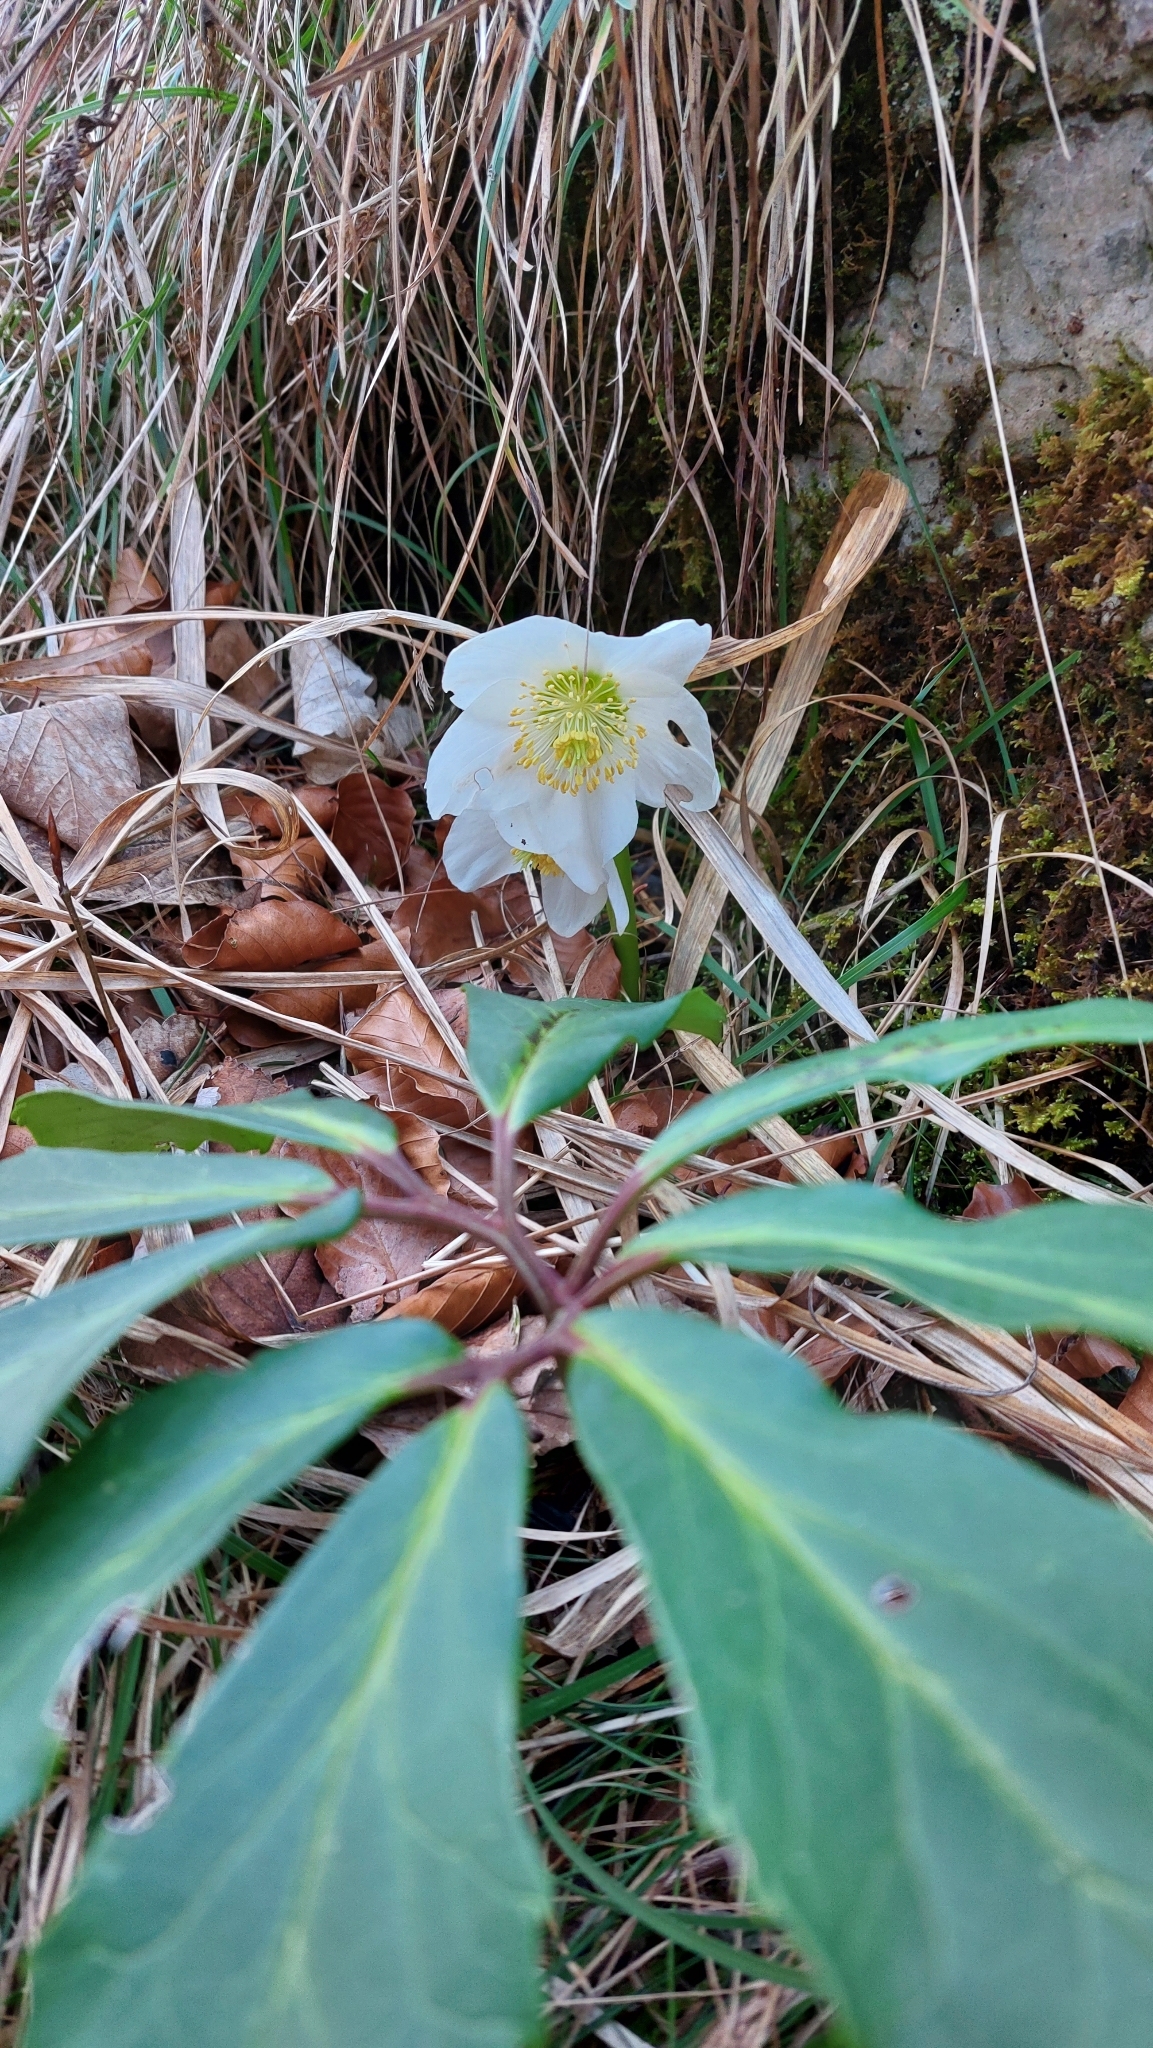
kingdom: Plantae
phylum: Tracheophyta
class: Magnoliopsida
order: Ranunculales
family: Ranunculaceae
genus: Helleborus
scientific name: Helleborus niger
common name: Black hellebore
